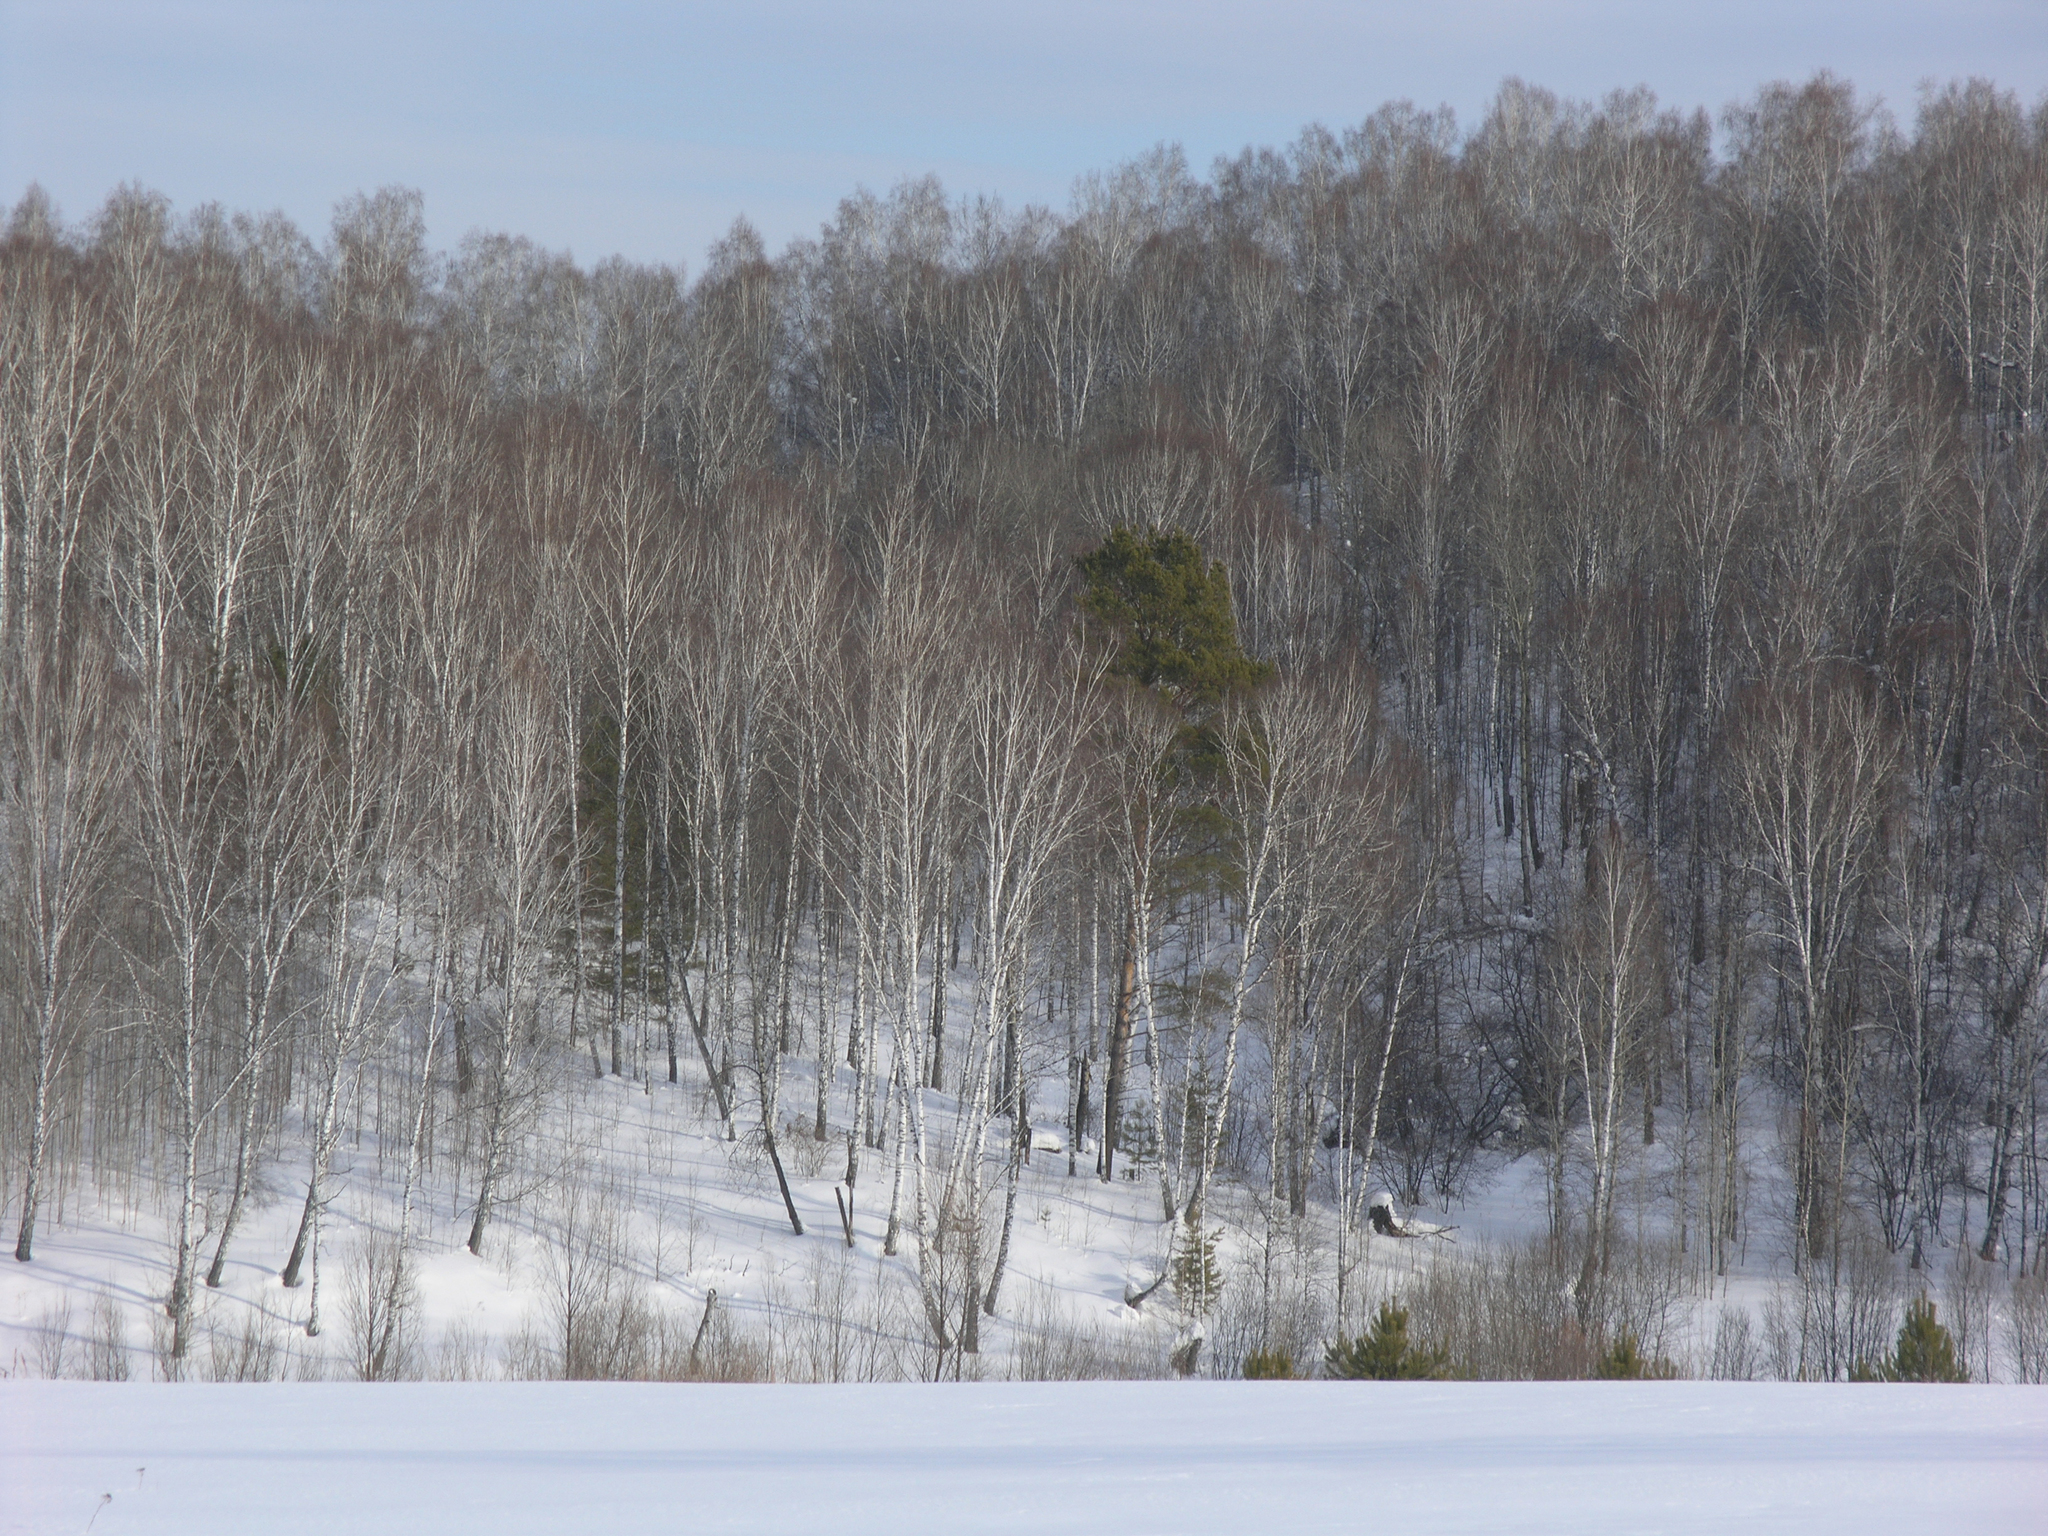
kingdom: Plantae
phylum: Tracheophyta
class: Magnoliopsida
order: Fagales
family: Betulaceae
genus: Betula
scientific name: Betula pendula
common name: Silver birch
